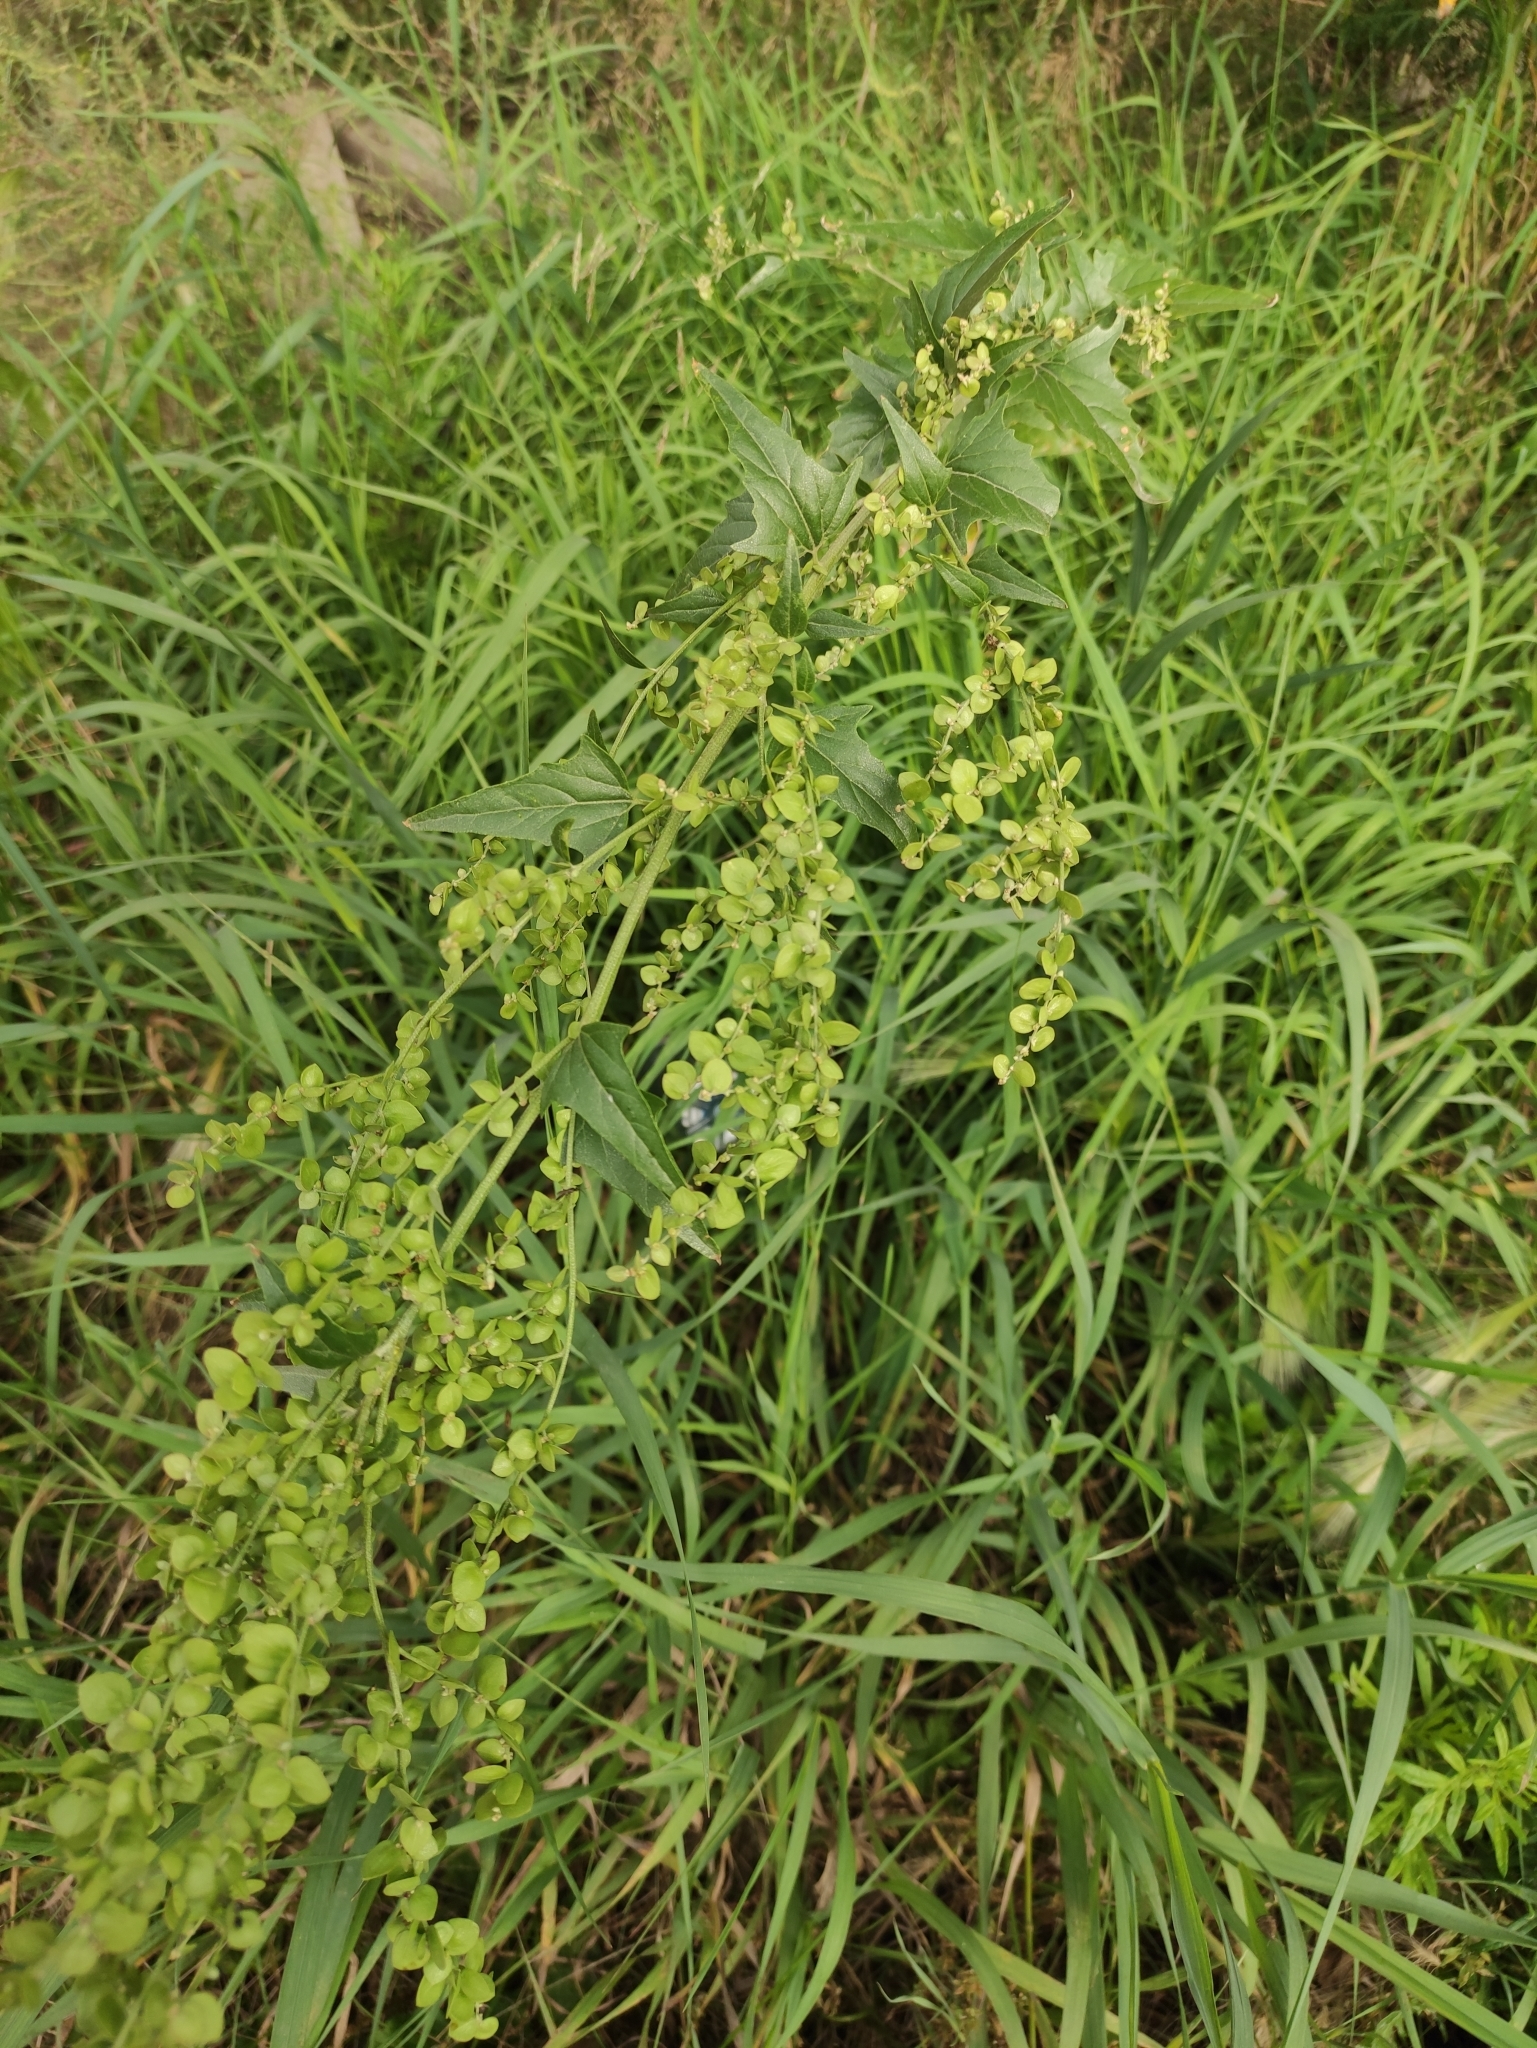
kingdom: Plantae
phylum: Tracheophyta
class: Magnoliopsida
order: Caryophyllales
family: Amaranthaceae
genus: Atriplex
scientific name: Atriplex sagittata
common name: Purple orache
